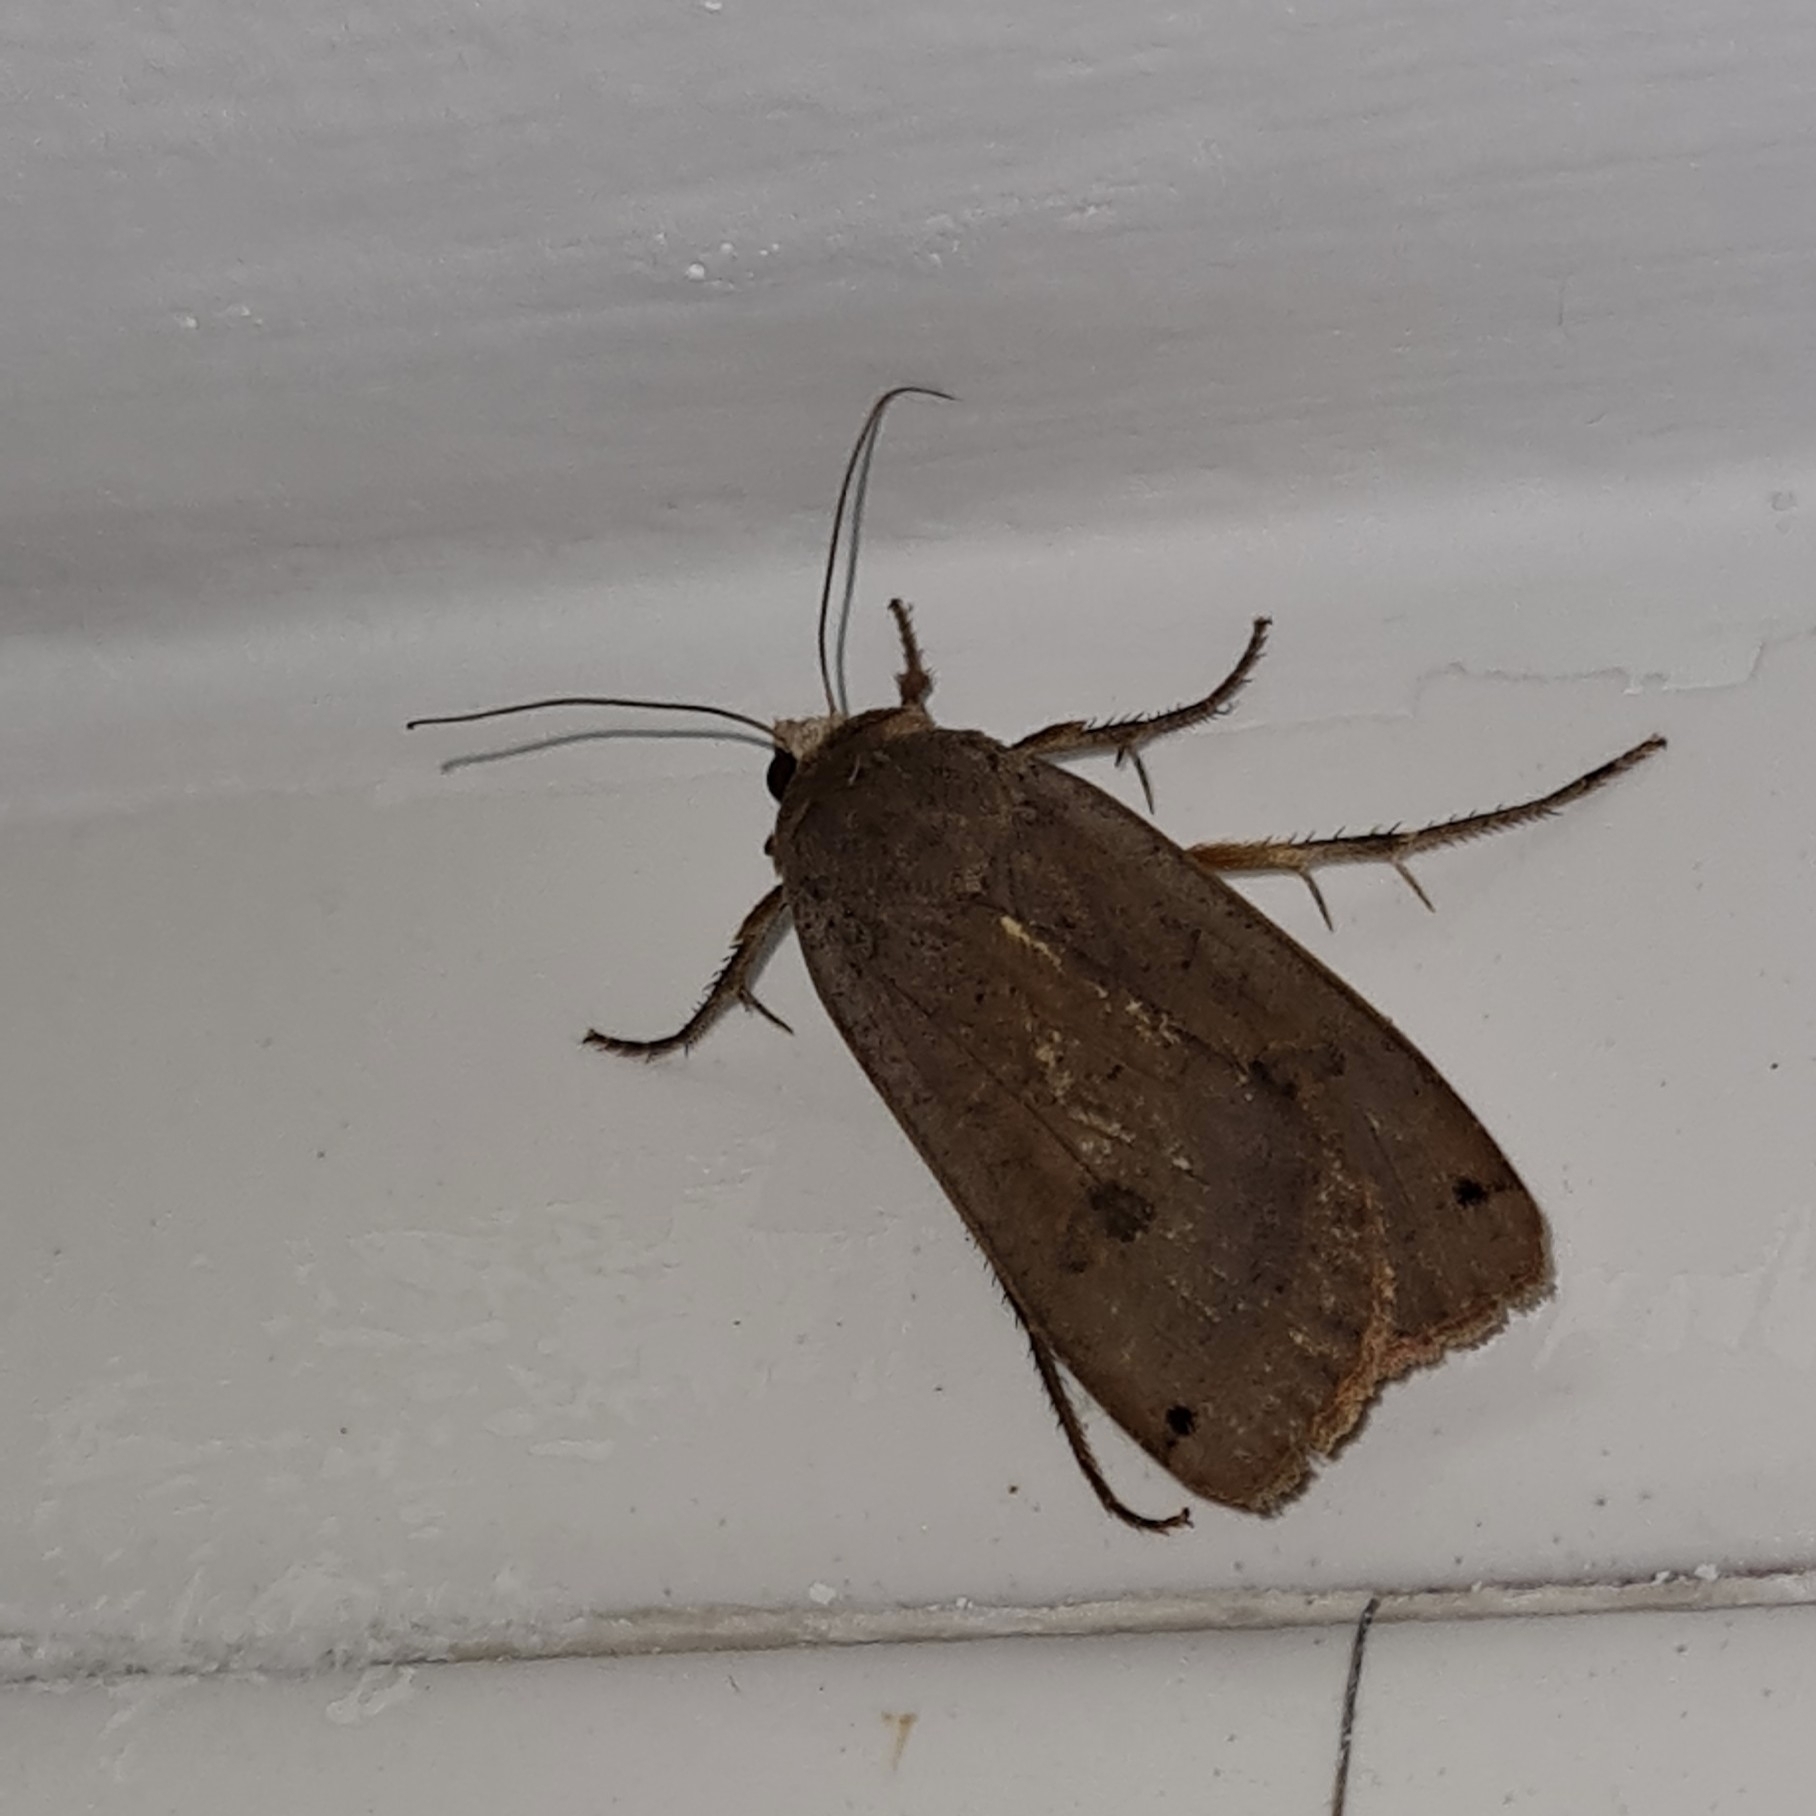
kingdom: Animalia
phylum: Arthropoda
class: Insecta
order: Lepidoptera
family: Noctuidae
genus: Noctua
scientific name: Noctua pronuba
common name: Large yellow underwing
